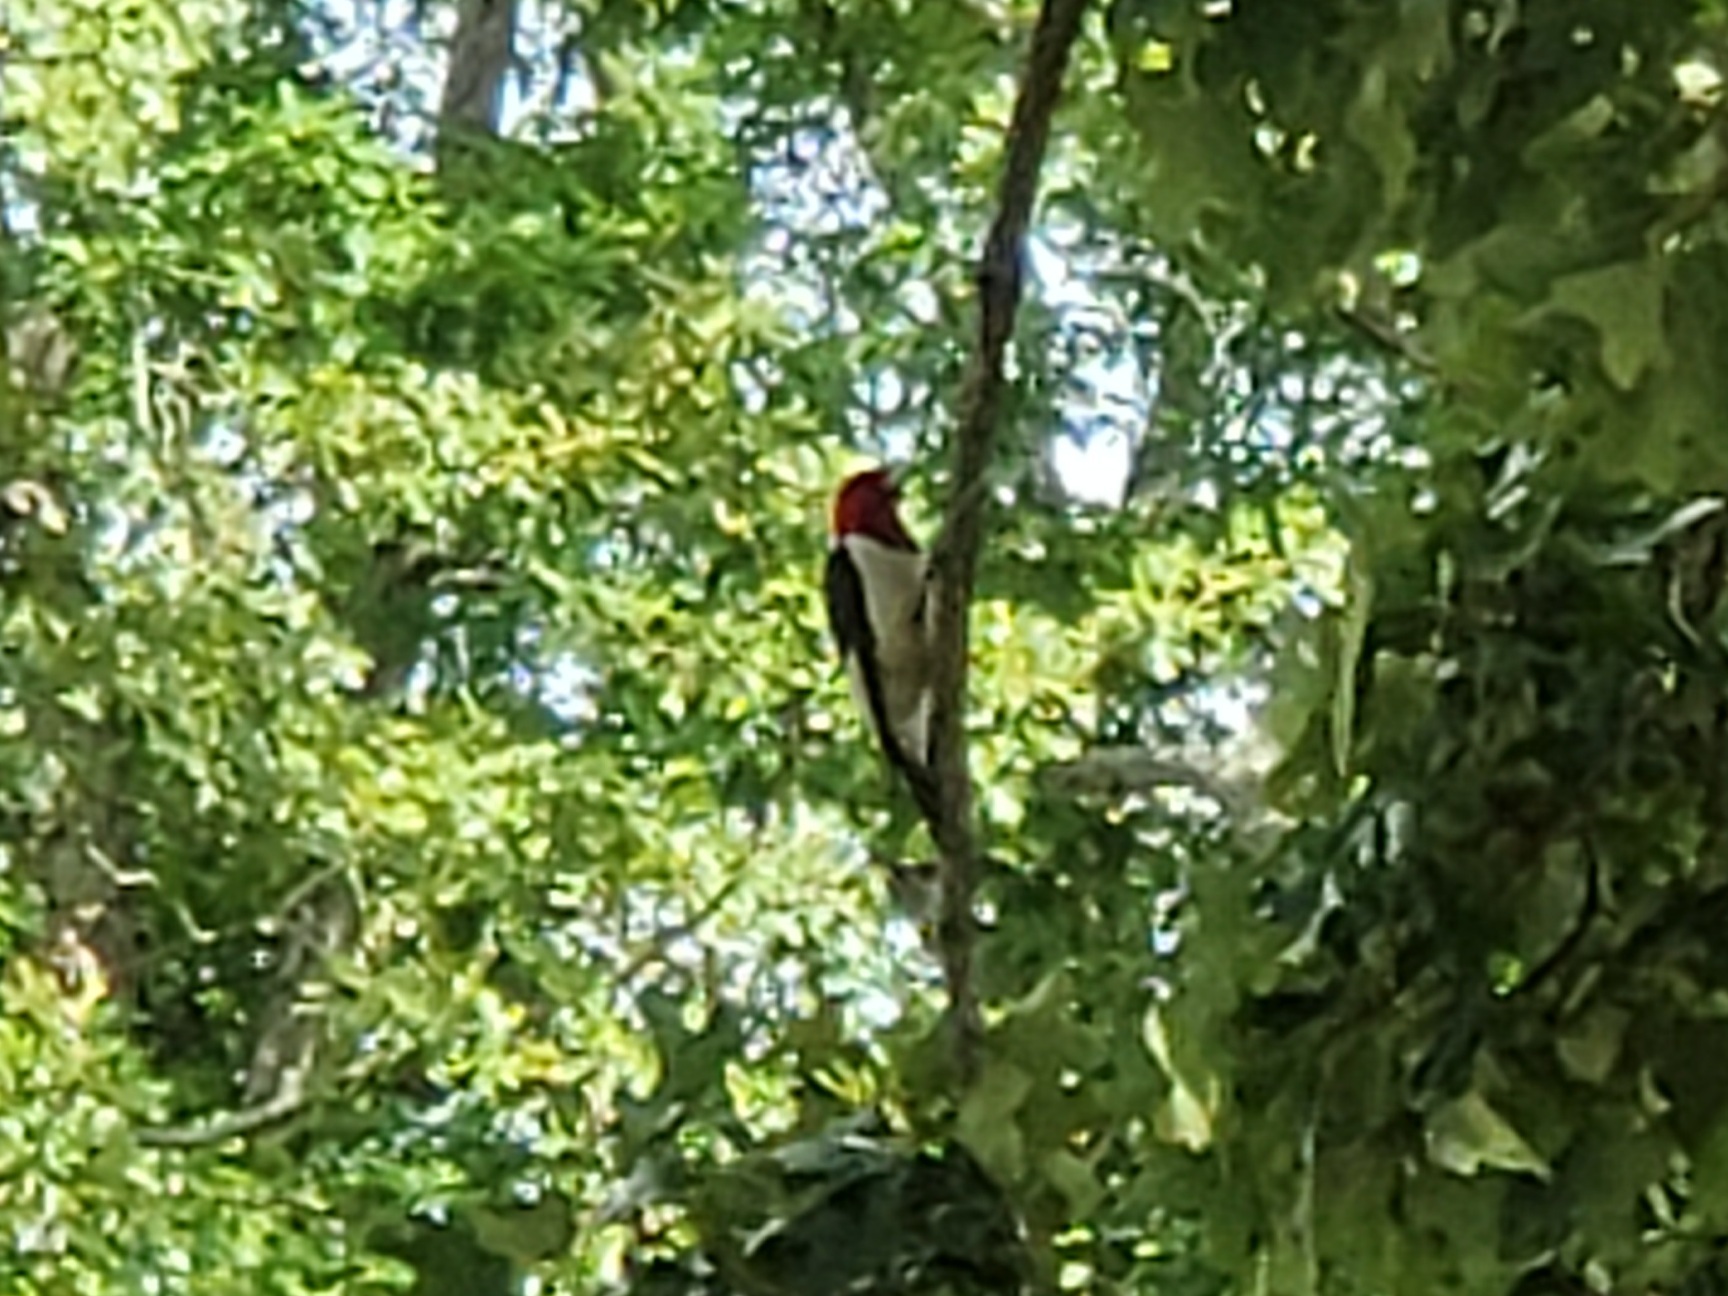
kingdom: Animalia
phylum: Chordata
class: Aves
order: Piciformes
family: Picidae
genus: Melanerpes
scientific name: Melanerpes erythrocephalus
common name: Red-headed woodpecker
